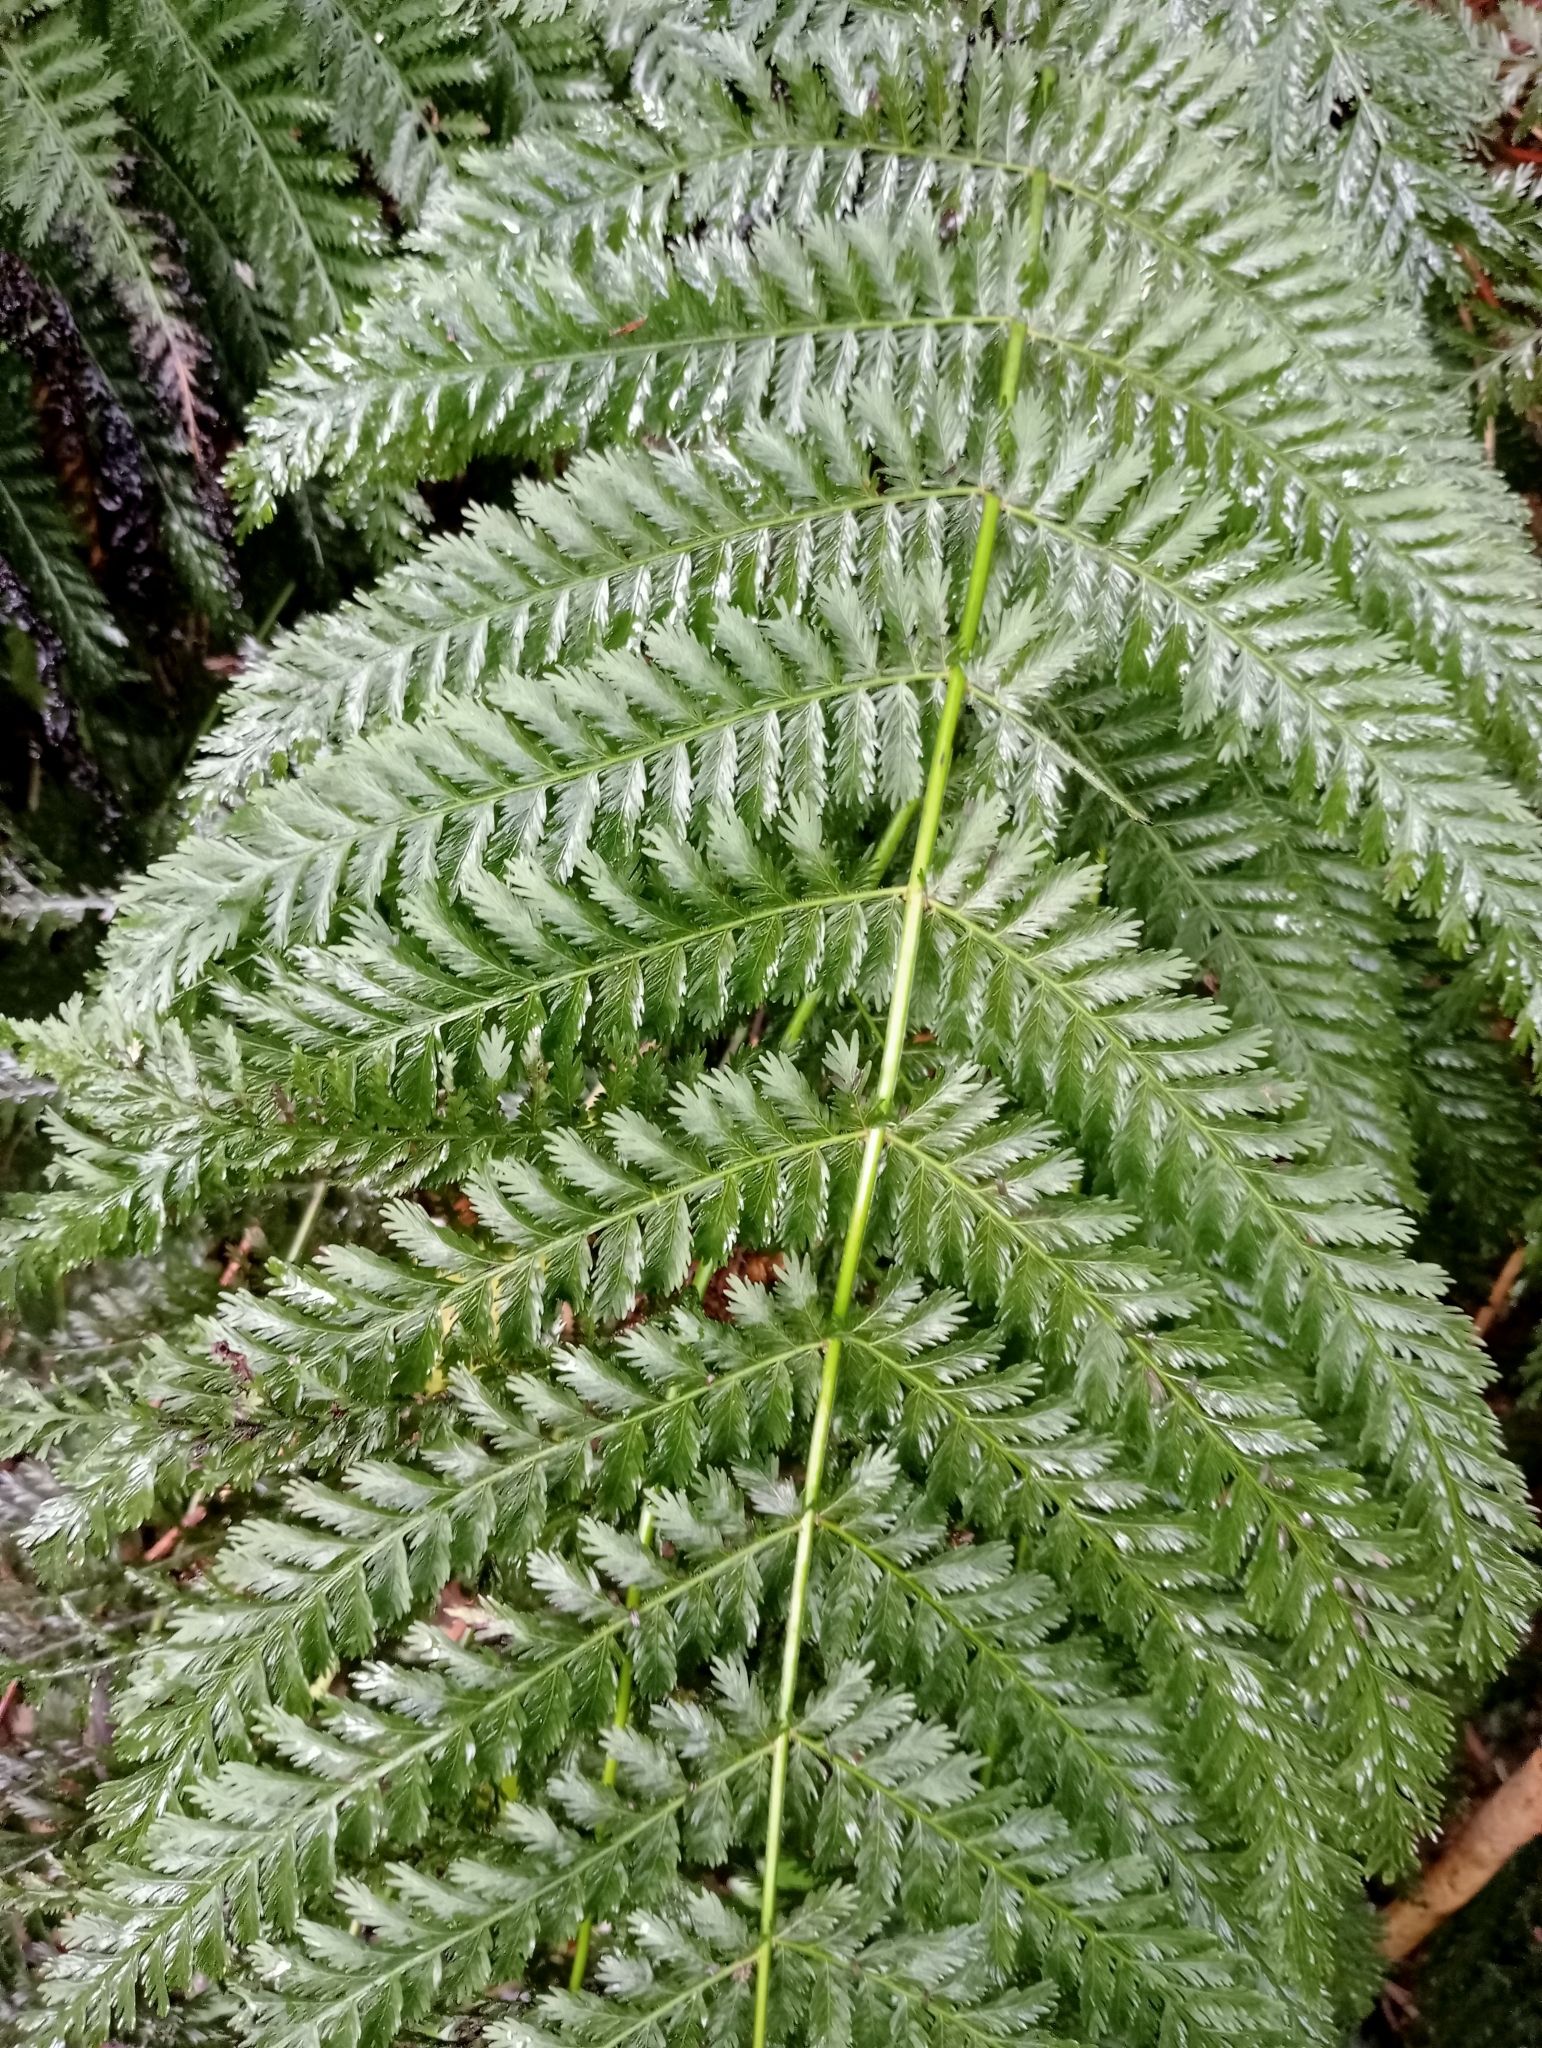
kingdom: Plantae
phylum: Tracheophyta
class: Polypodiopsida
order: Osmundales
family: Osmundaceae
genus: Leptopteris
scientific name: Leptopteris hymenophylloides
